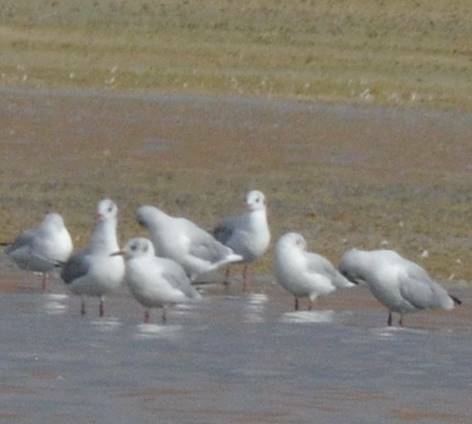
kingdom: Animalia
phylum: Chordata
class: Aves
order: Charadriiformes
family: Laridae
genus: Chroicocephalus
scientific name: Chroicocephalus ridibundus
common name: Black-headed gull
